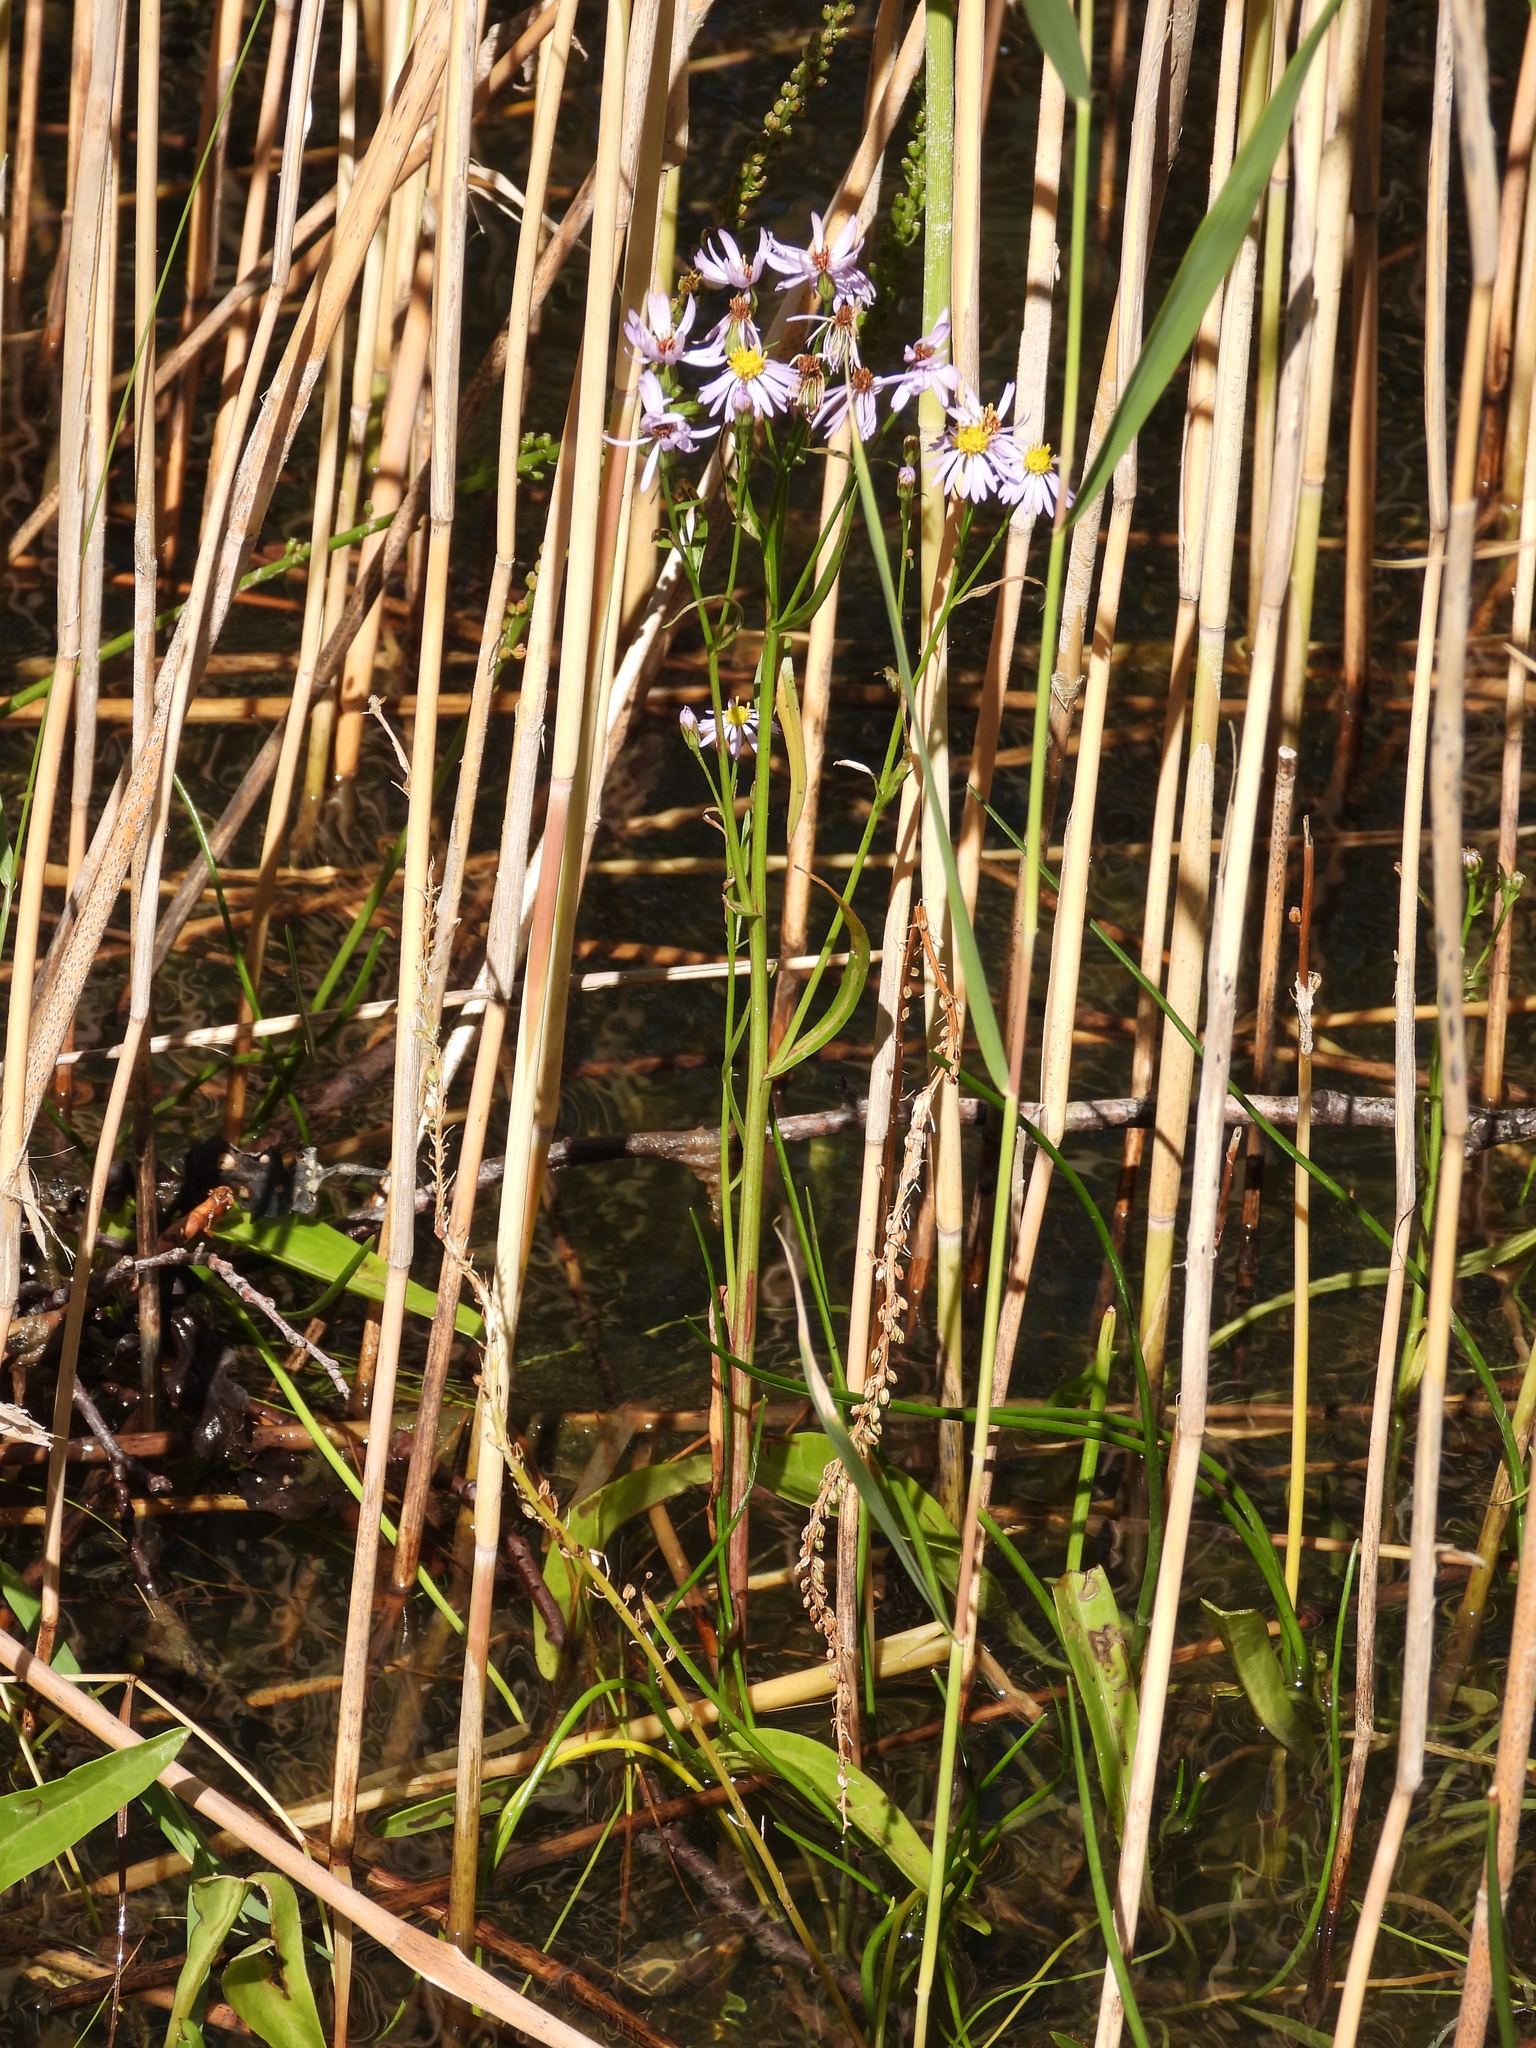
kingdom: Plantae
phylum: Tracheophyta
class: Magnoliopsida
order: Asterales
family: Asteraceae
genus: Tripolium
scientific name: Tripolium pannonicum
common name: Sea aster
